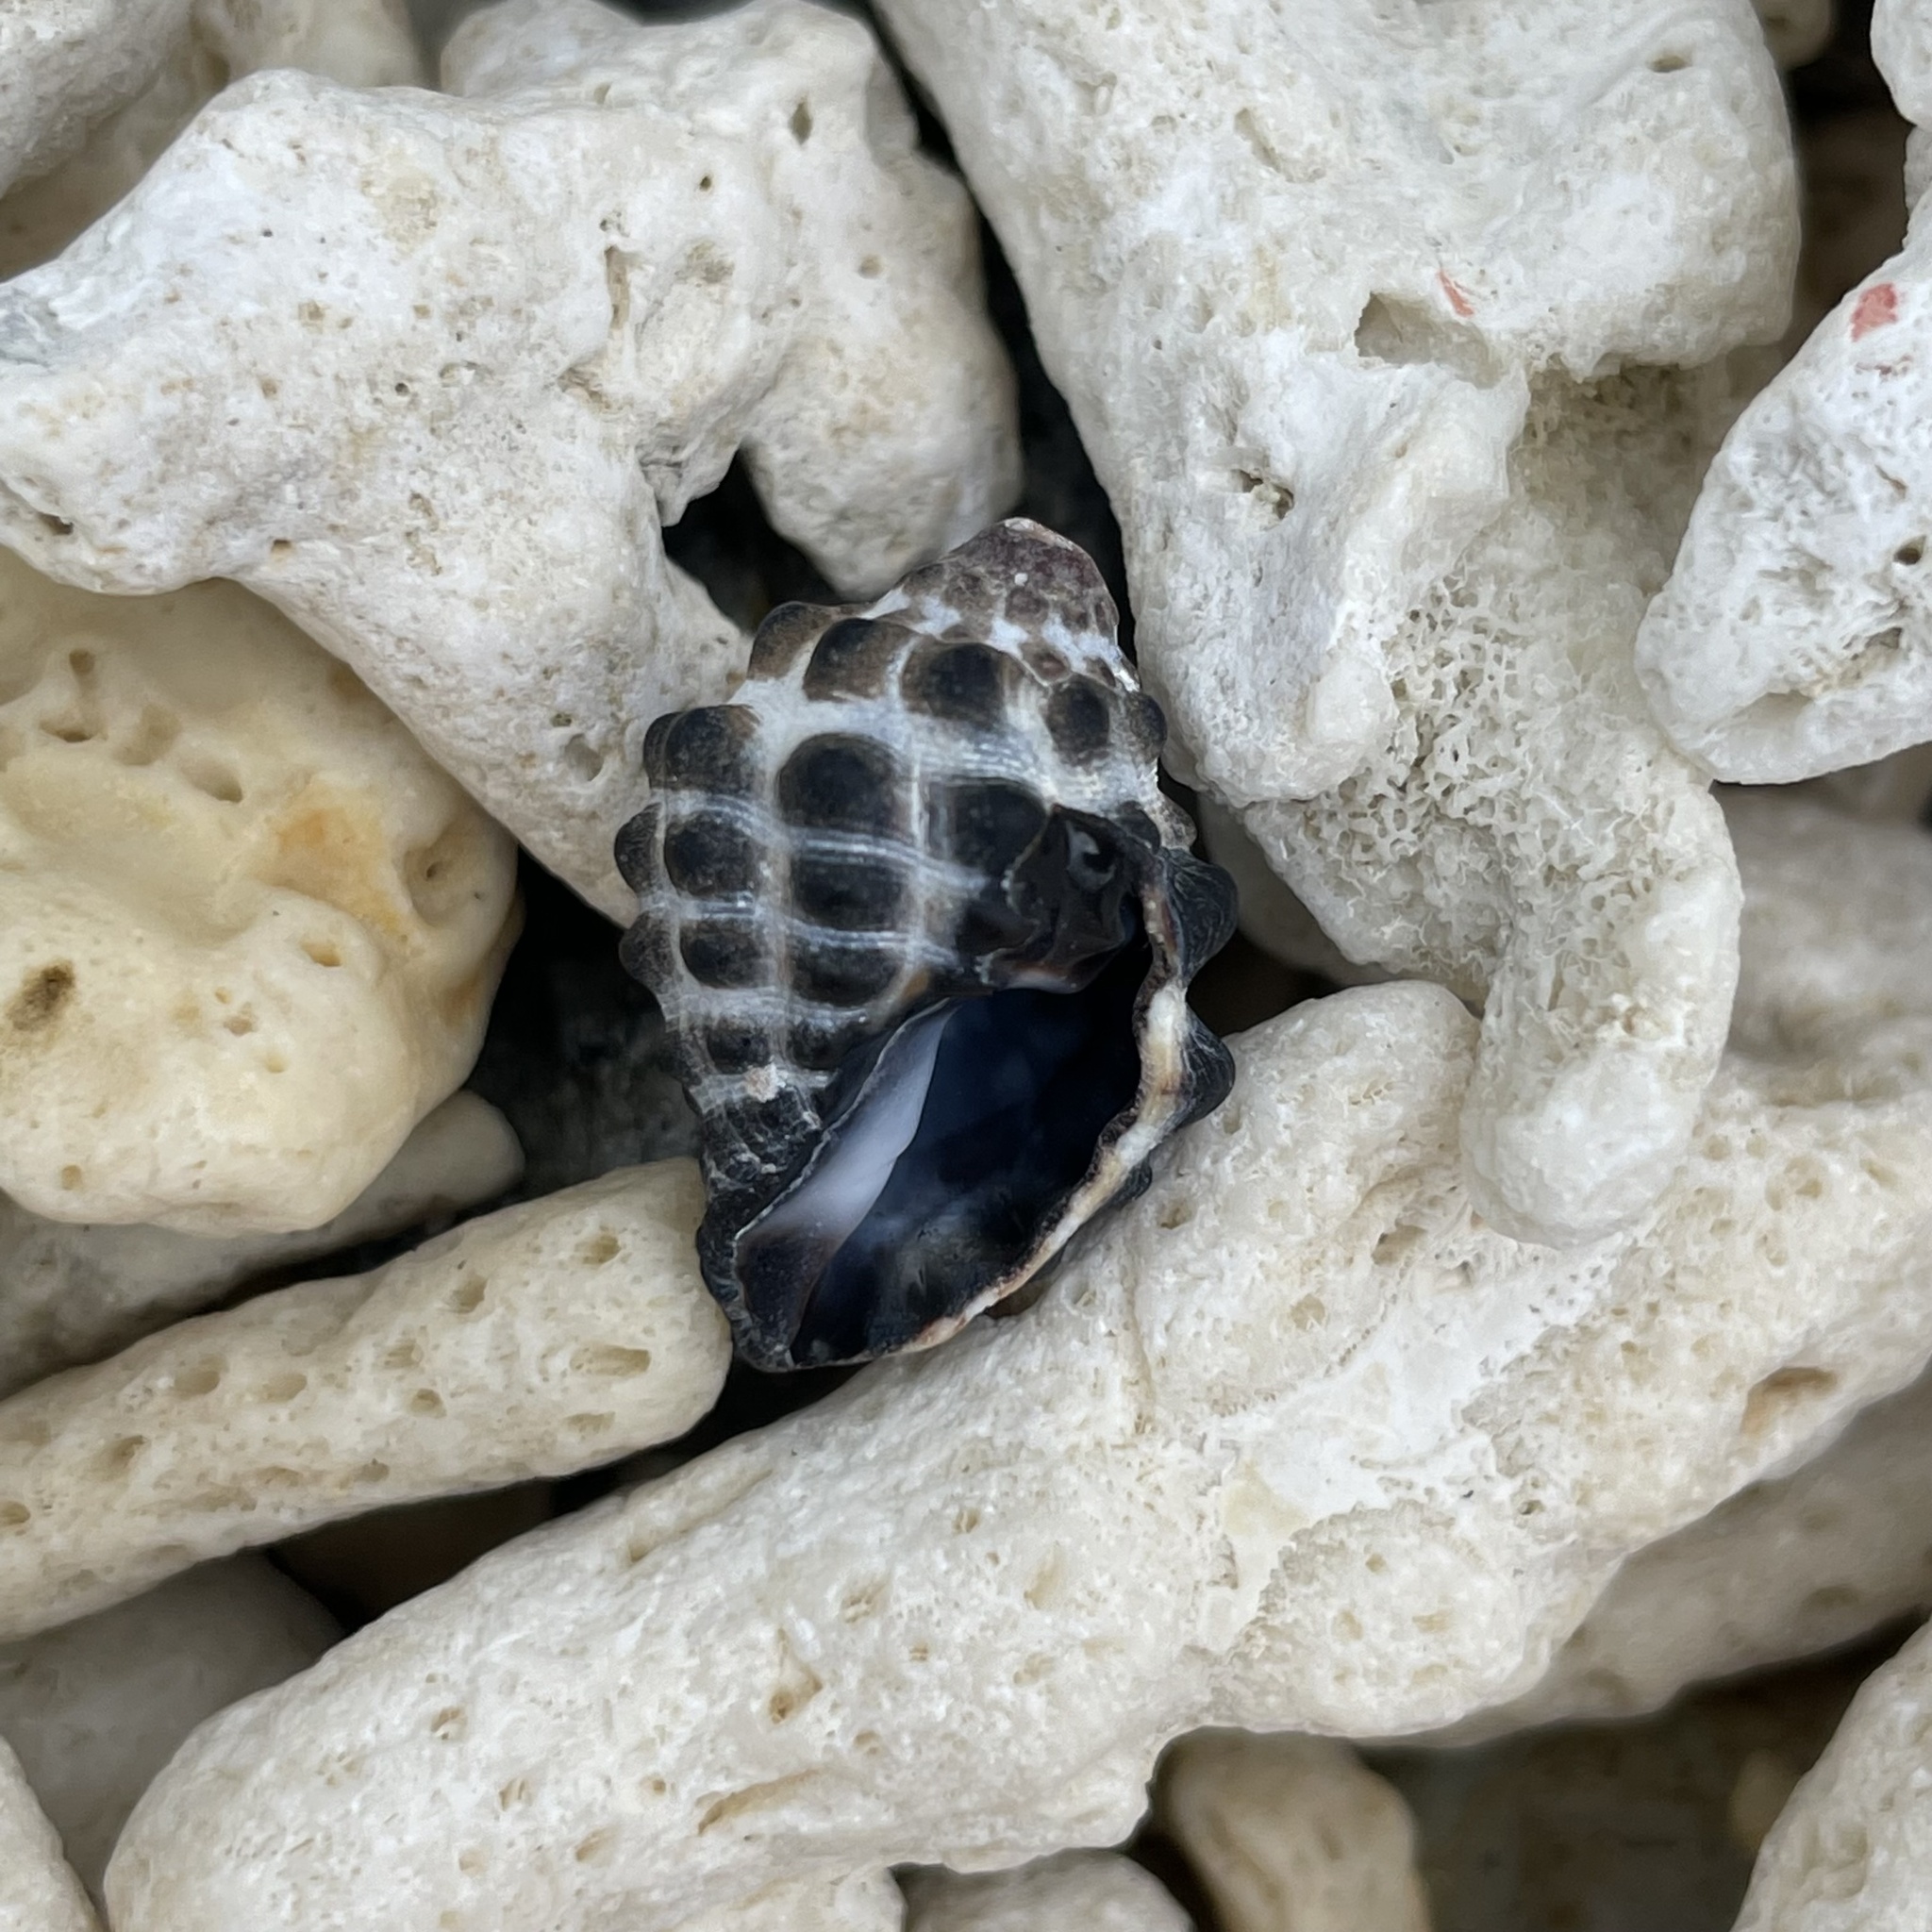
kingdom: Animalia
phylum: Mollusca
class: Gastropoda
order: Neogastropoda
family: Muricidae
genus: Tenguella
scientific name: Tenguella granulata
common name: Granular drupe
